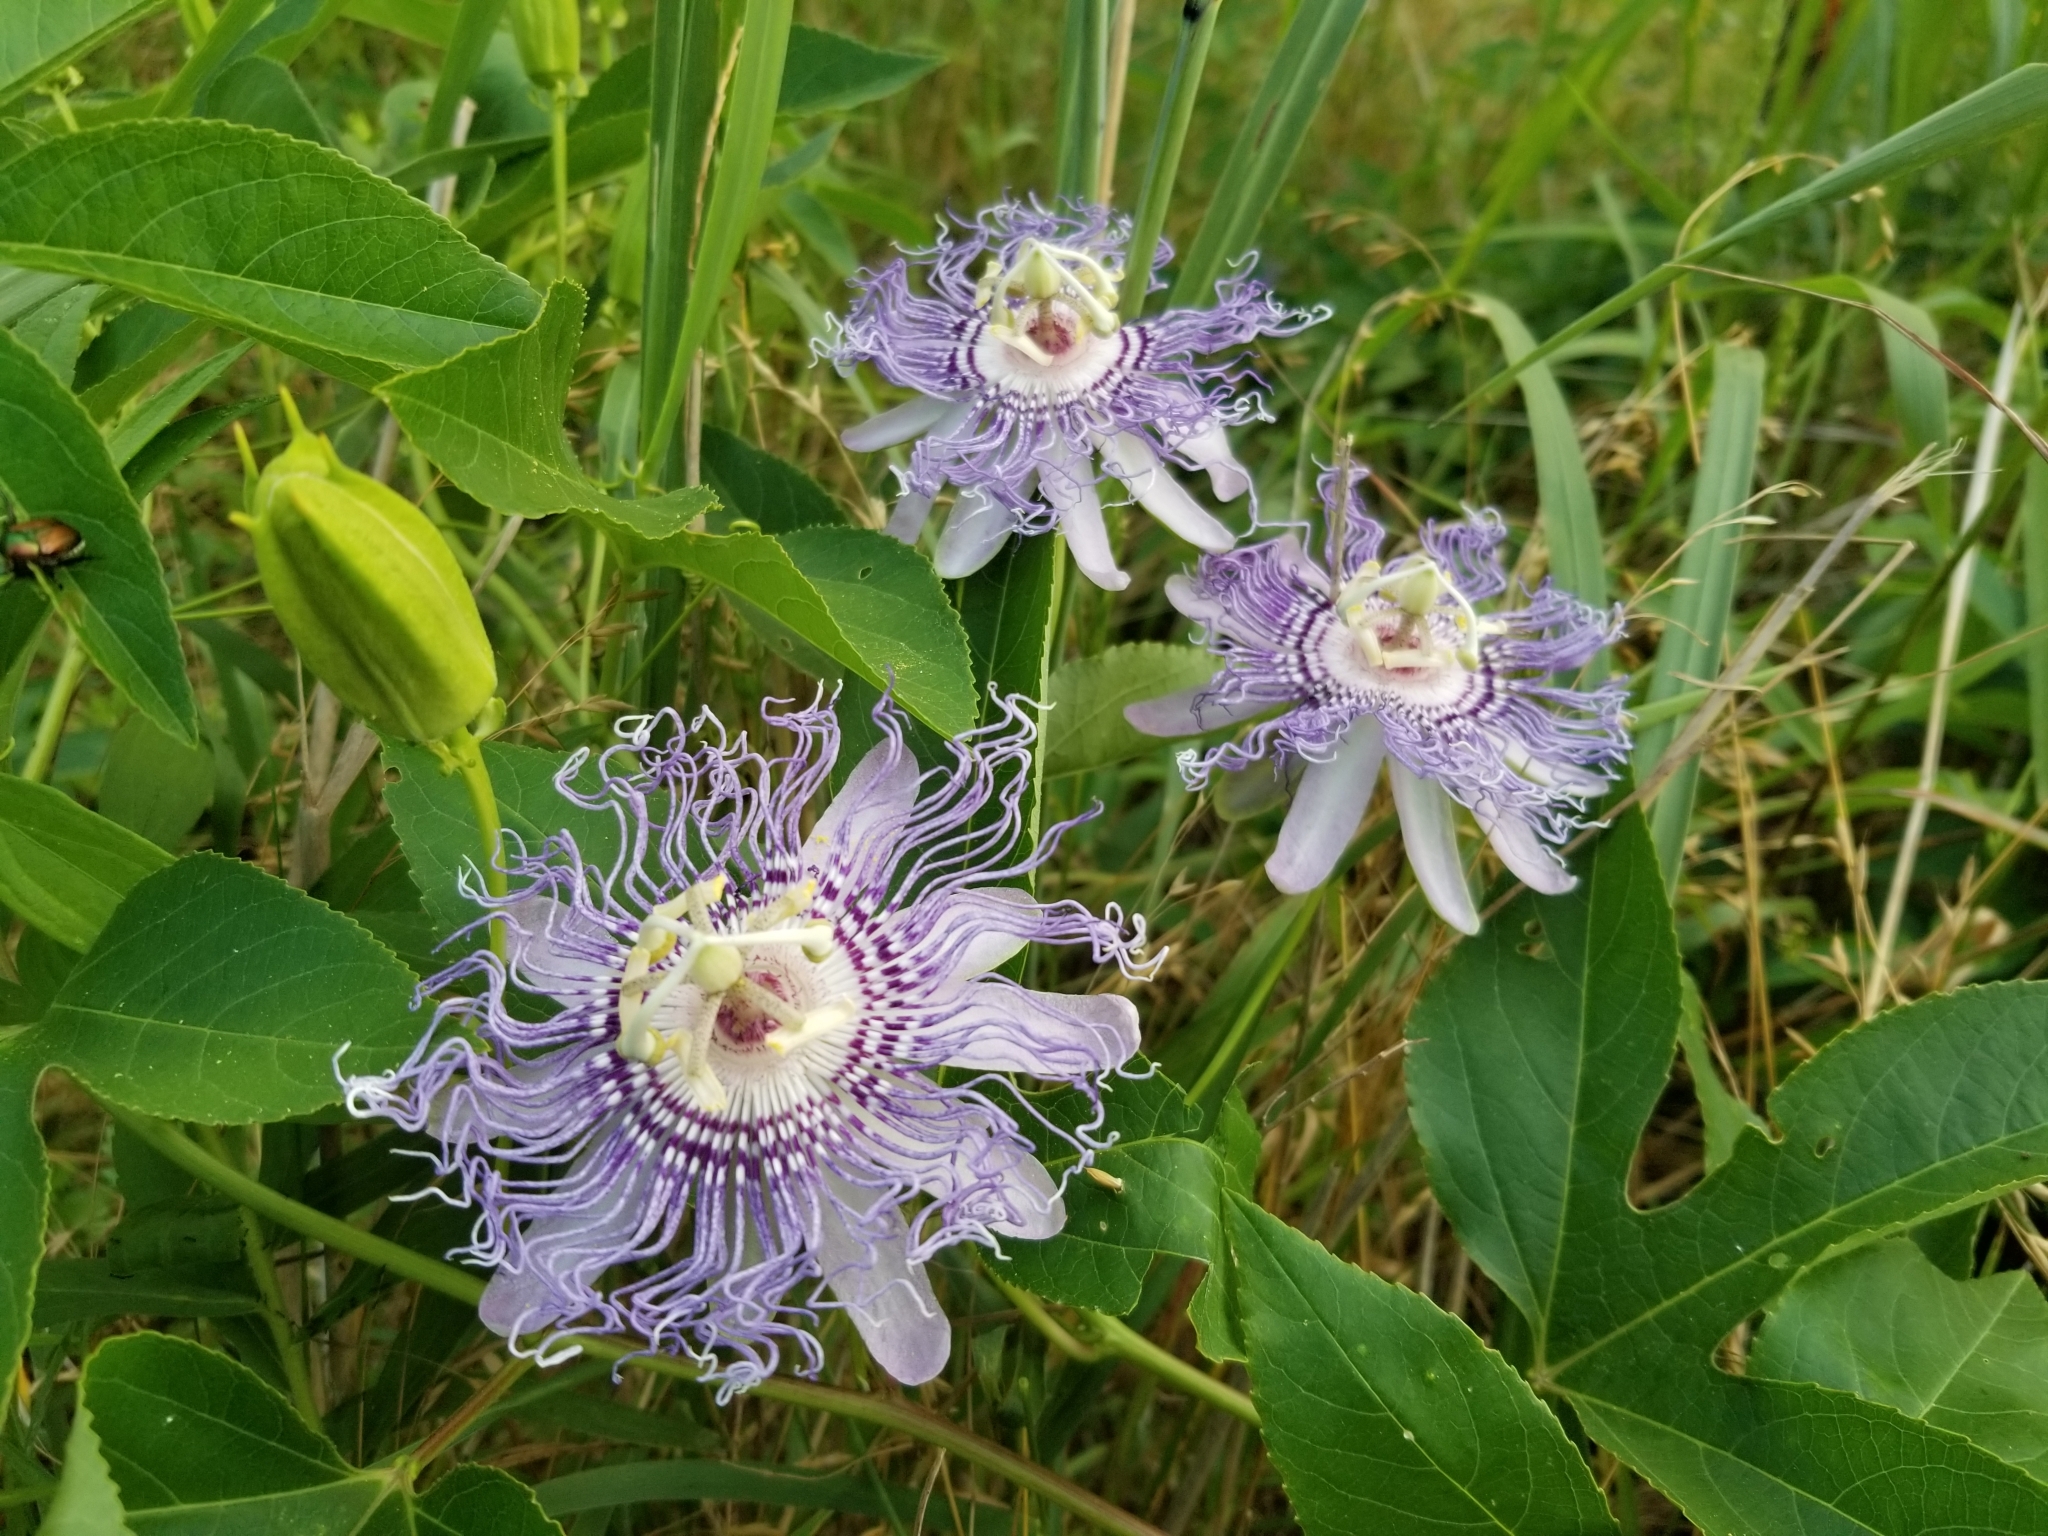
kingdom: Plantae
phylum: Tracheophyta
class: Magnoliopsida
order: Malpighiales
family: Passifloraceae
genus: Passiflora
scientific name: Passiflora incarnata
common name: Apricot-vine
